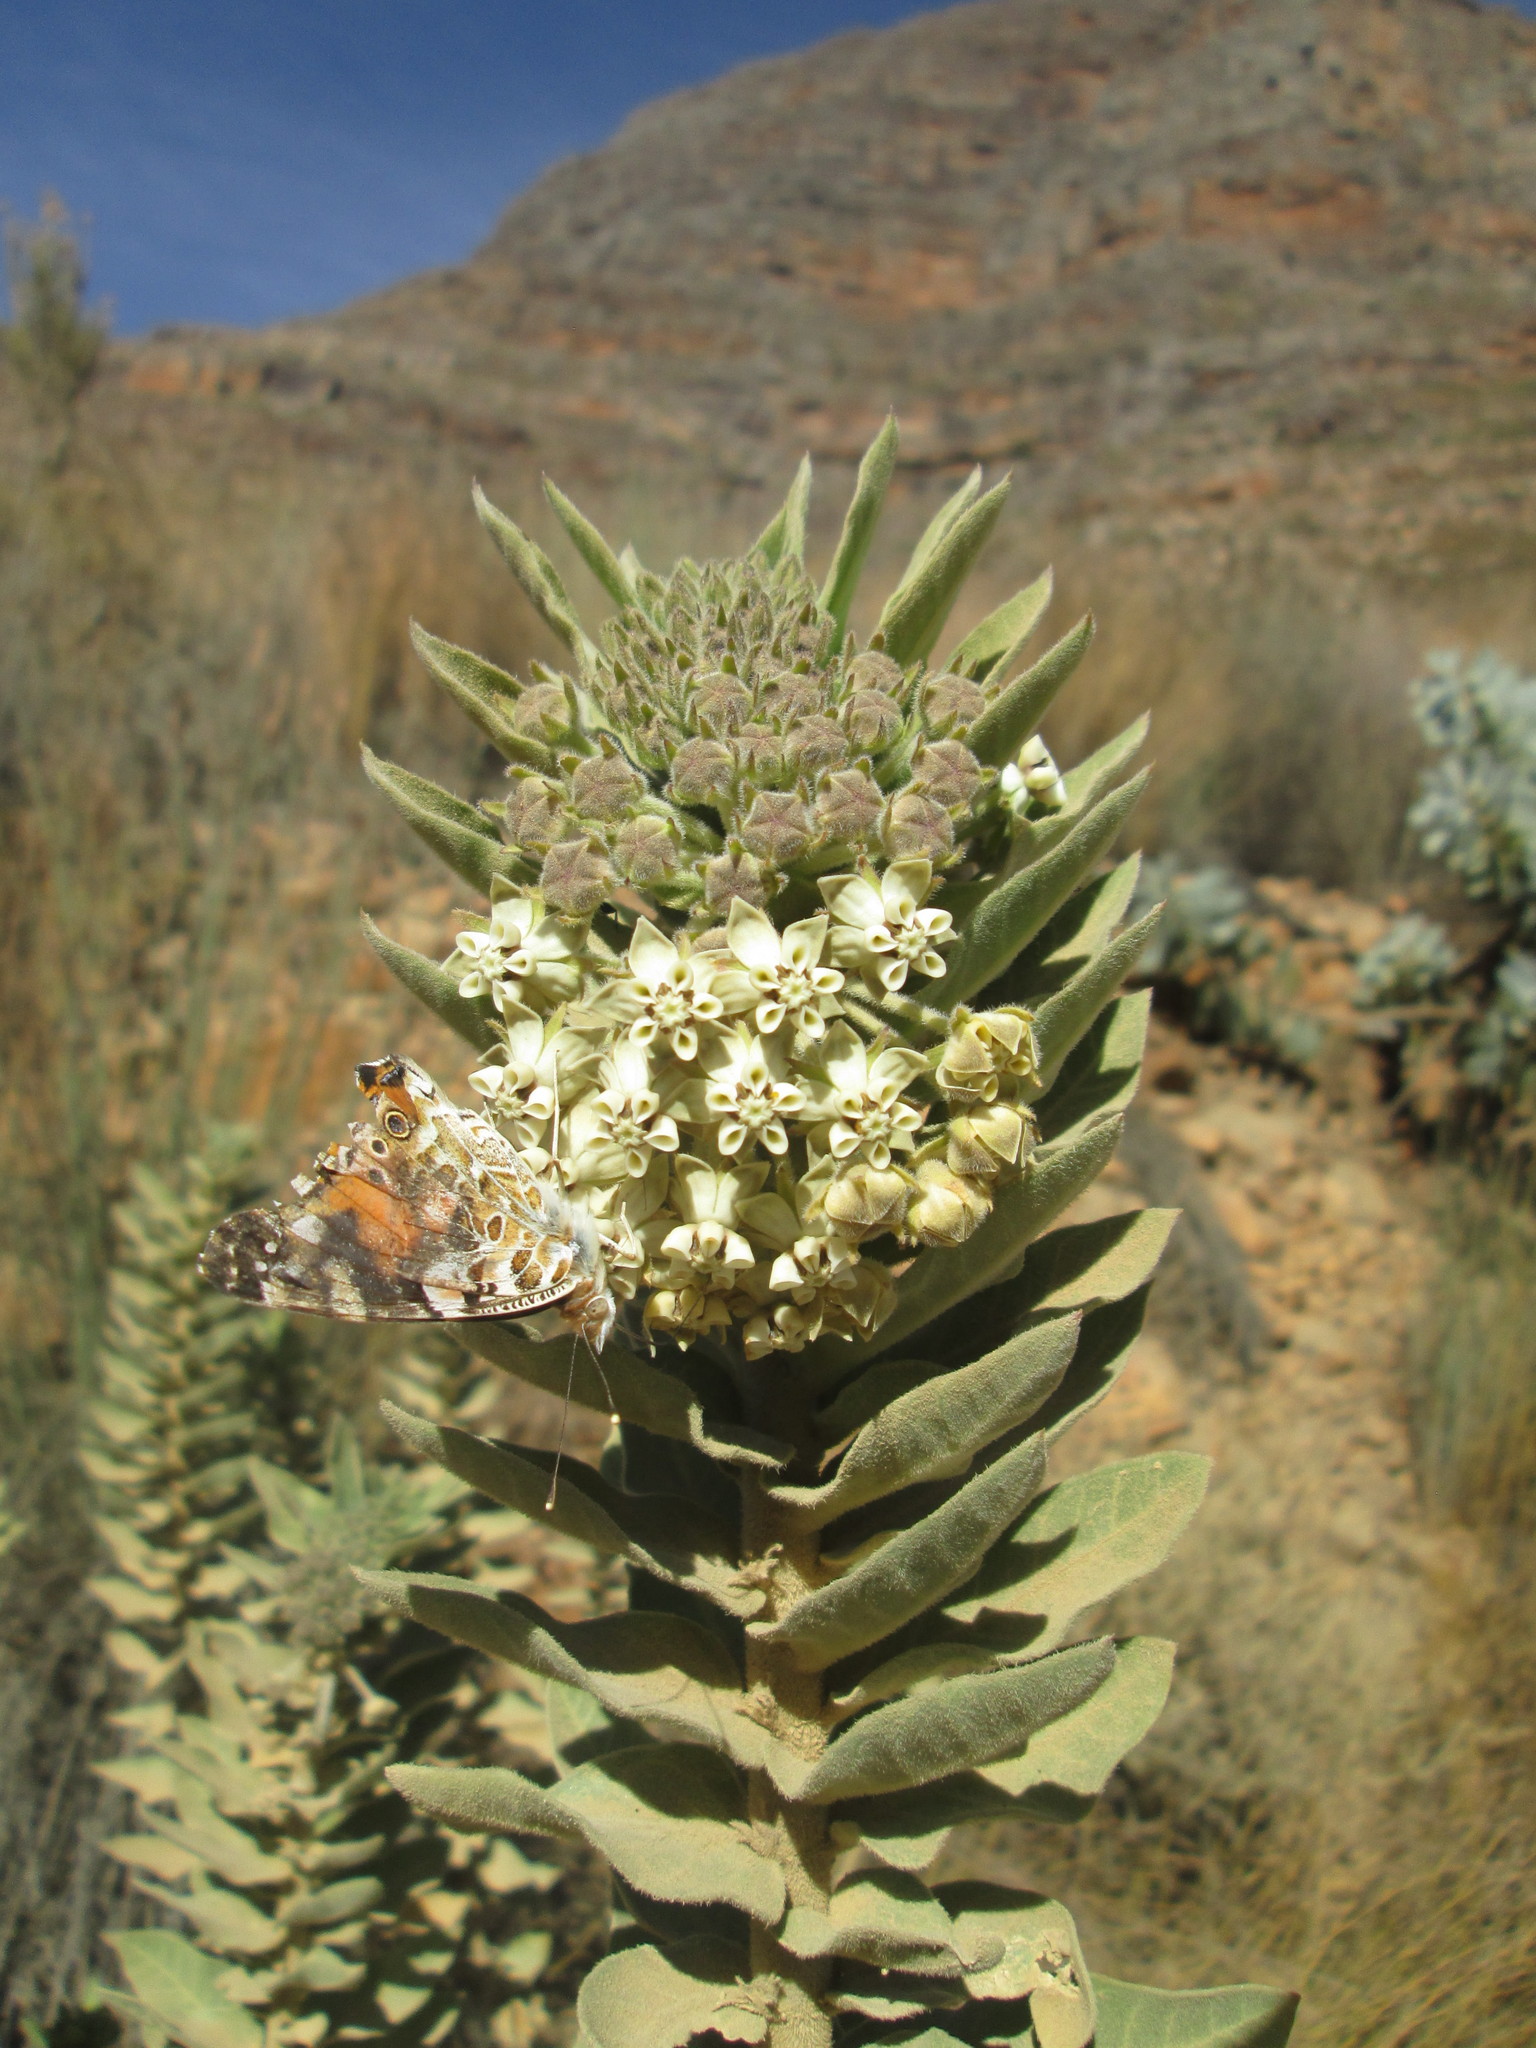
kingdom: Animalia
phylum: Arthropoda
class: Insecta
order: Lepidoptera
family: Nymphalidae
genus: Vanessa
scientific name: Vanessa cardui
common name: Painted lady
